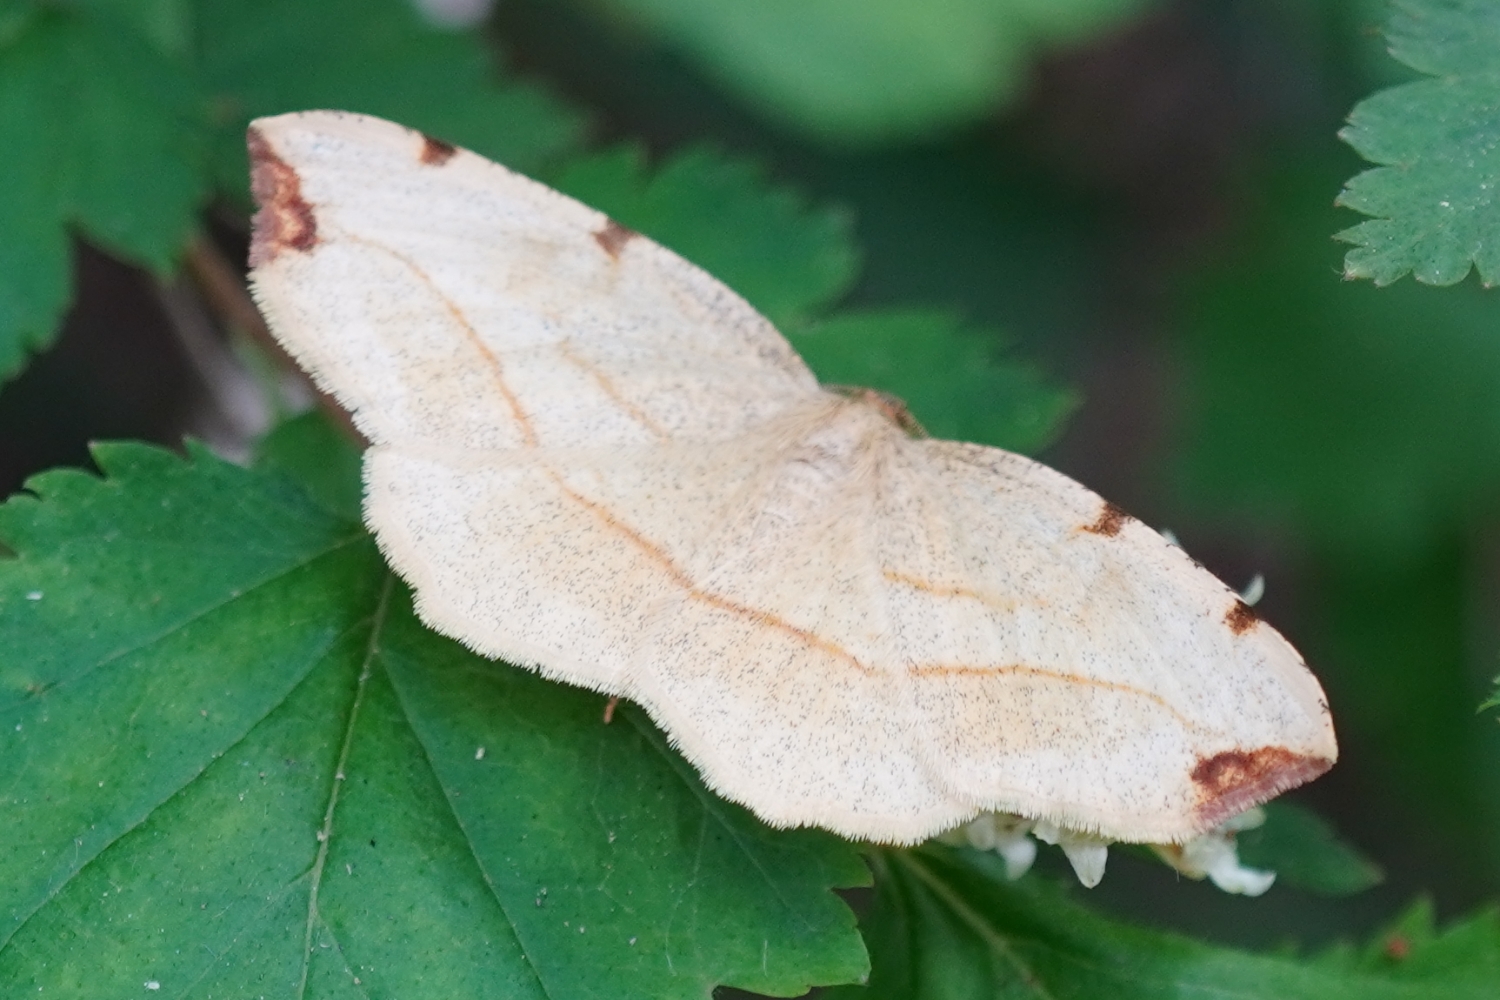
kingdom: Animalia
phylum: Arthropoda
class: Insecta
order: Lepidoptera
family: Geometridae
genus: Spilopera
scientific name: Spilopera debilis
